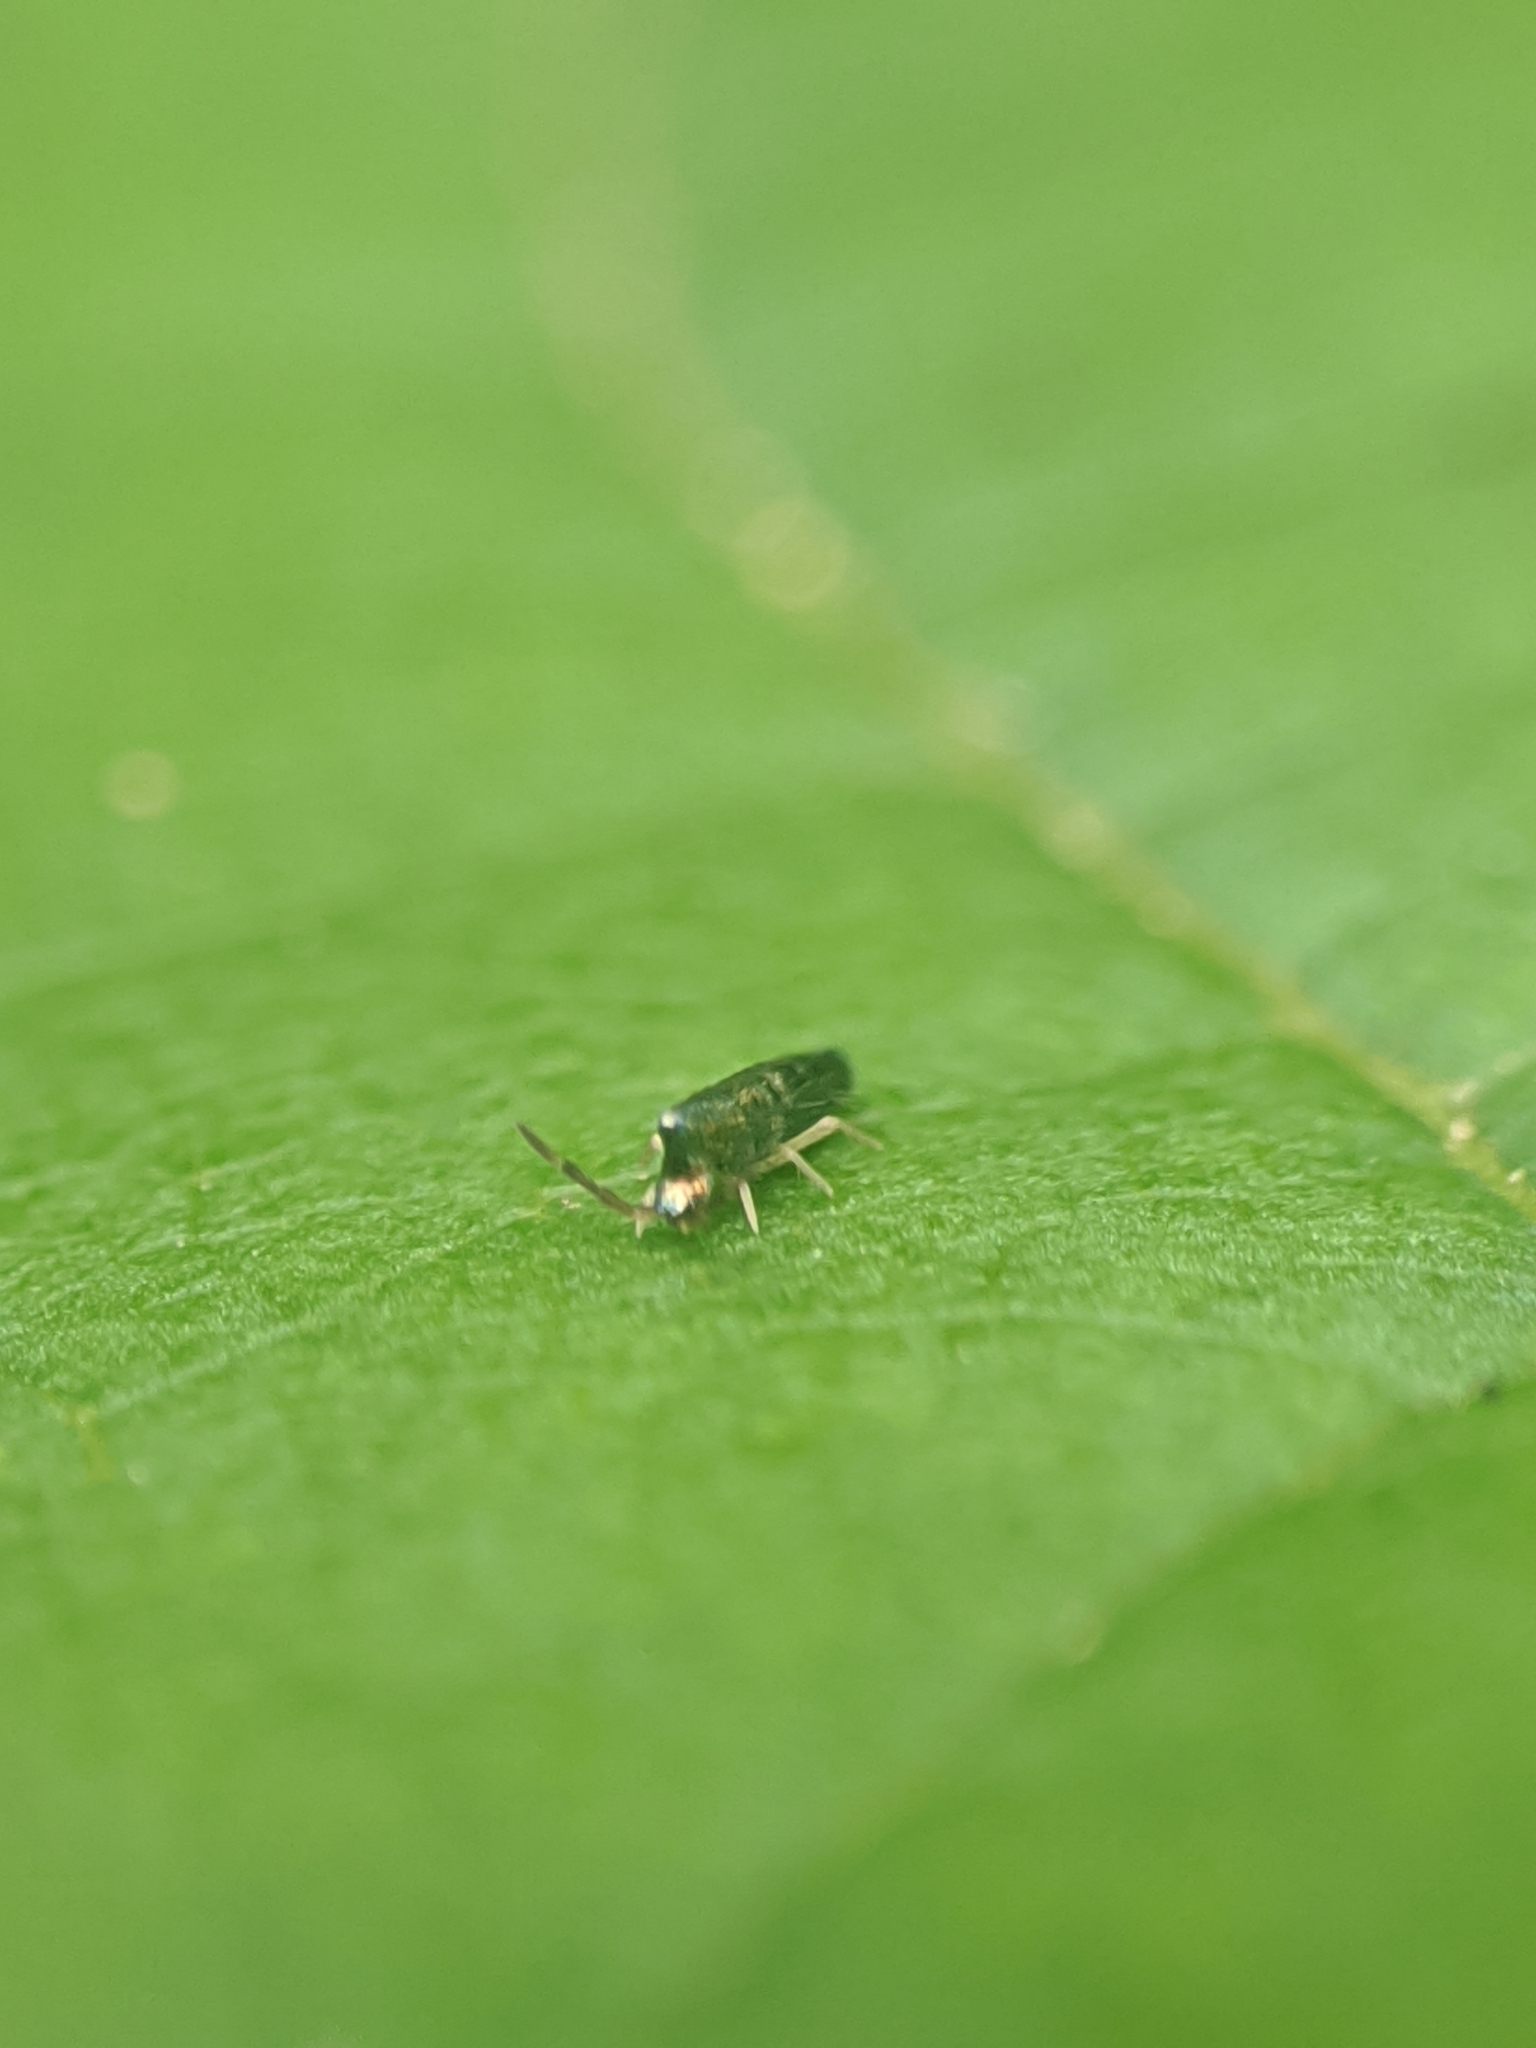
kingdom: Animalia
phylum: Arthropoda
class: Collembola
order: Entomobryomorpha
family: Entomobryidae
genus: Lepidocyrtus
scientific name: Lepidocyrtus paradoxus
